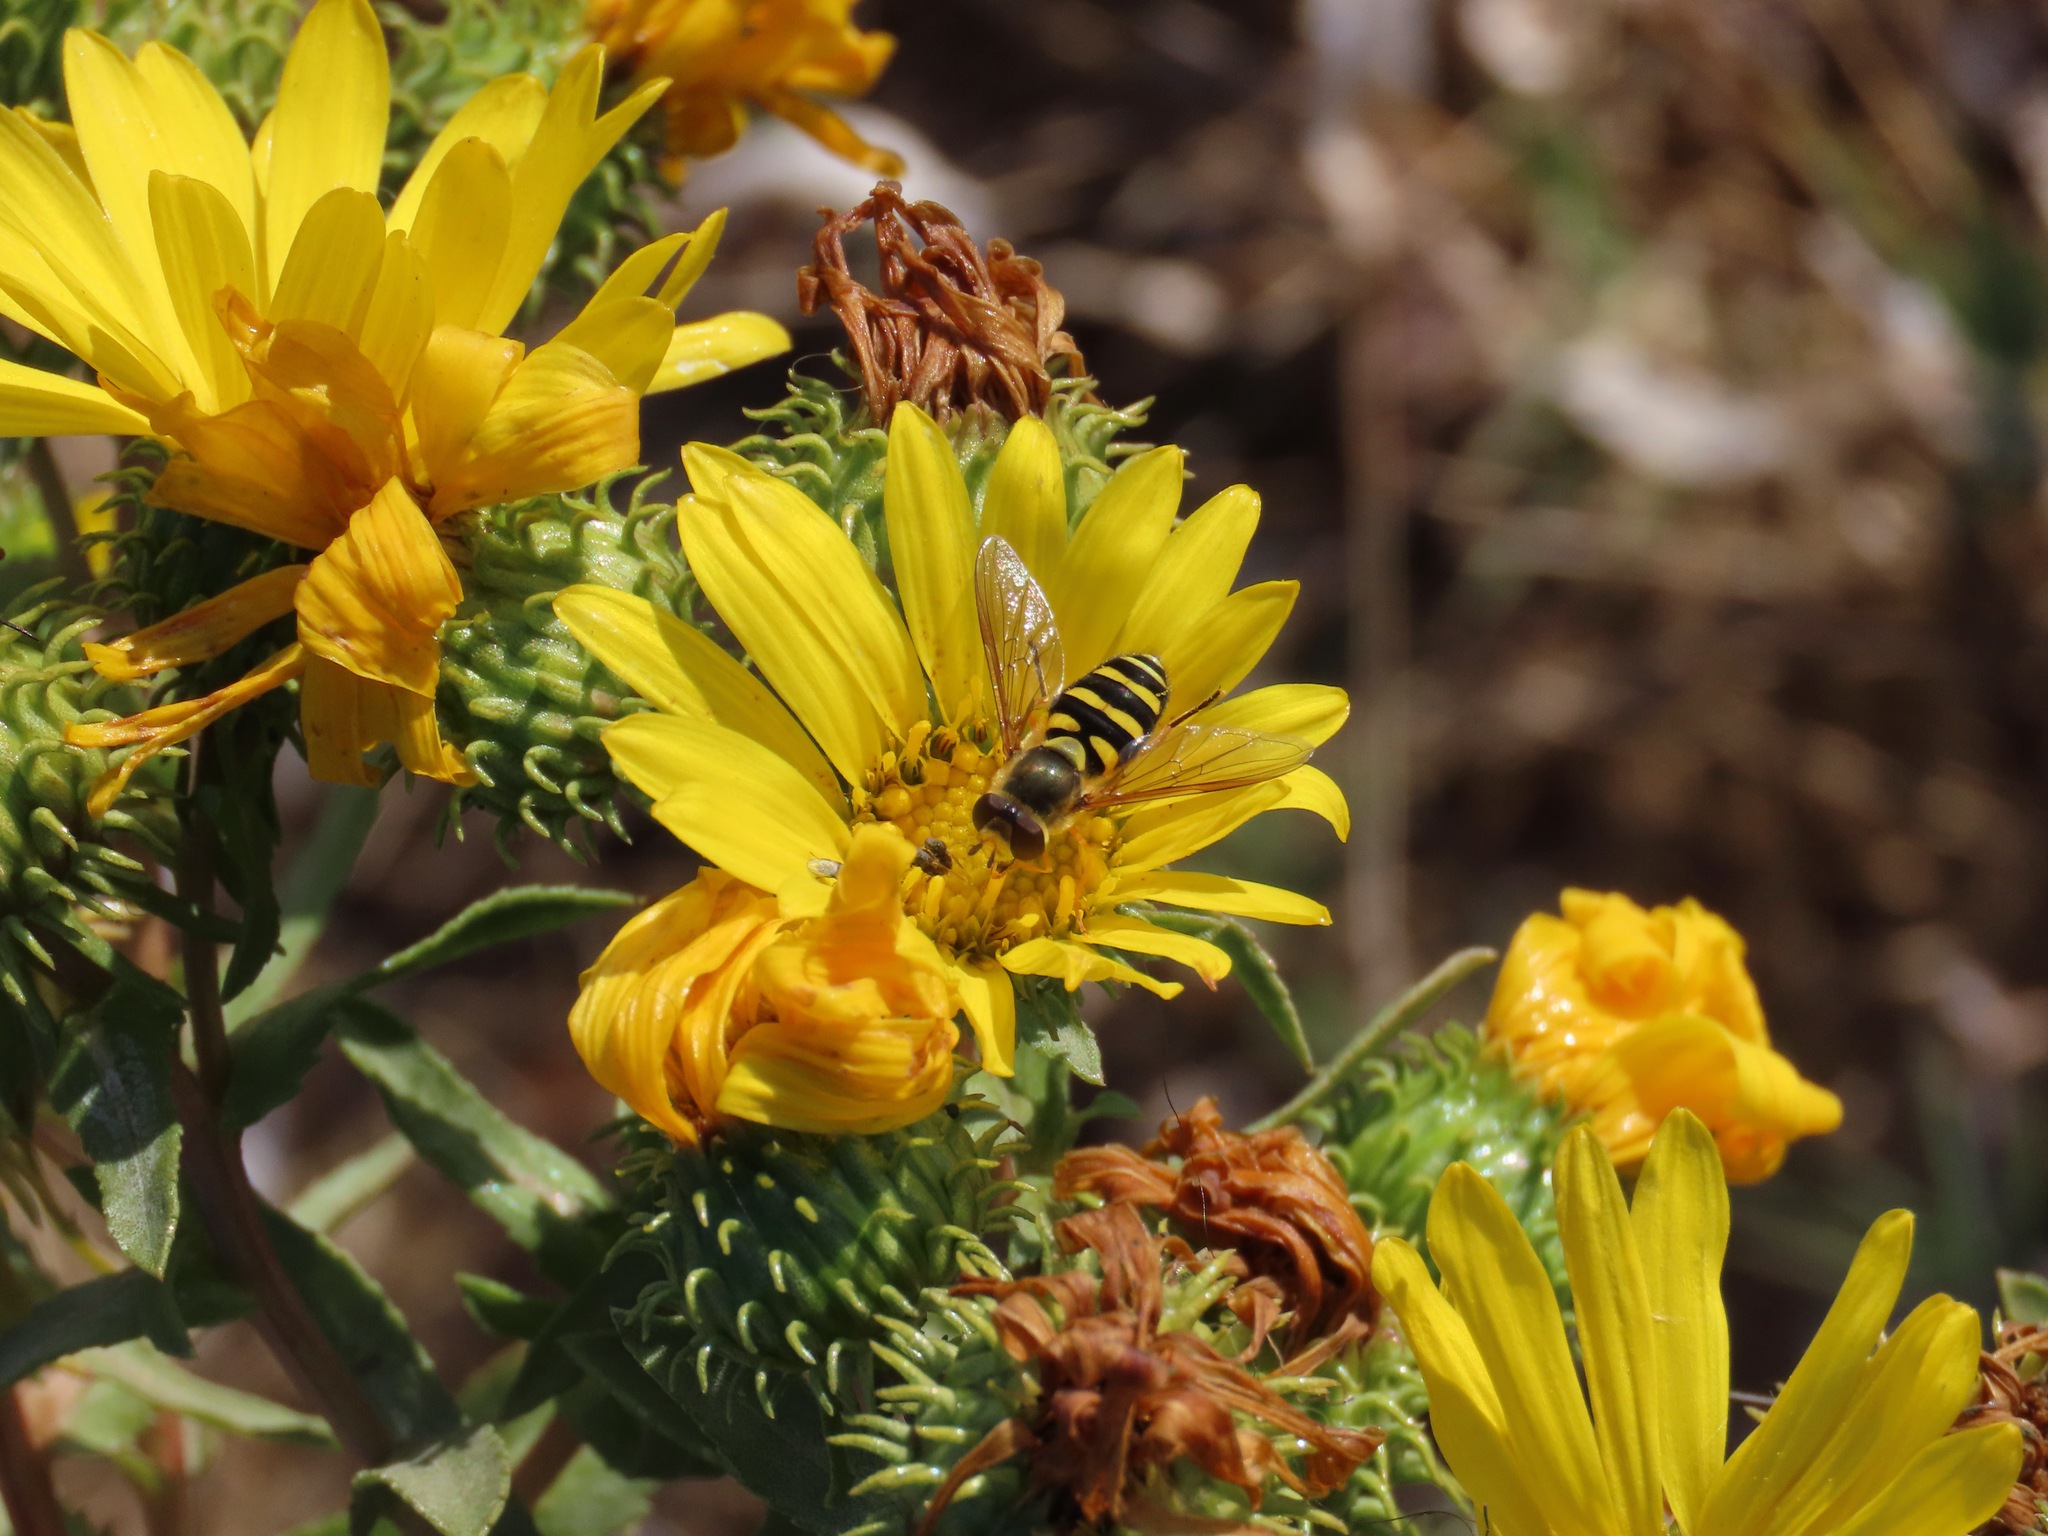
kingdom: Animalia
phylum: Arthropoda
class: Insecta
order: Diptera
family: Syrphidae
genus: Syrphus
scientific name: Syrphus opinator
